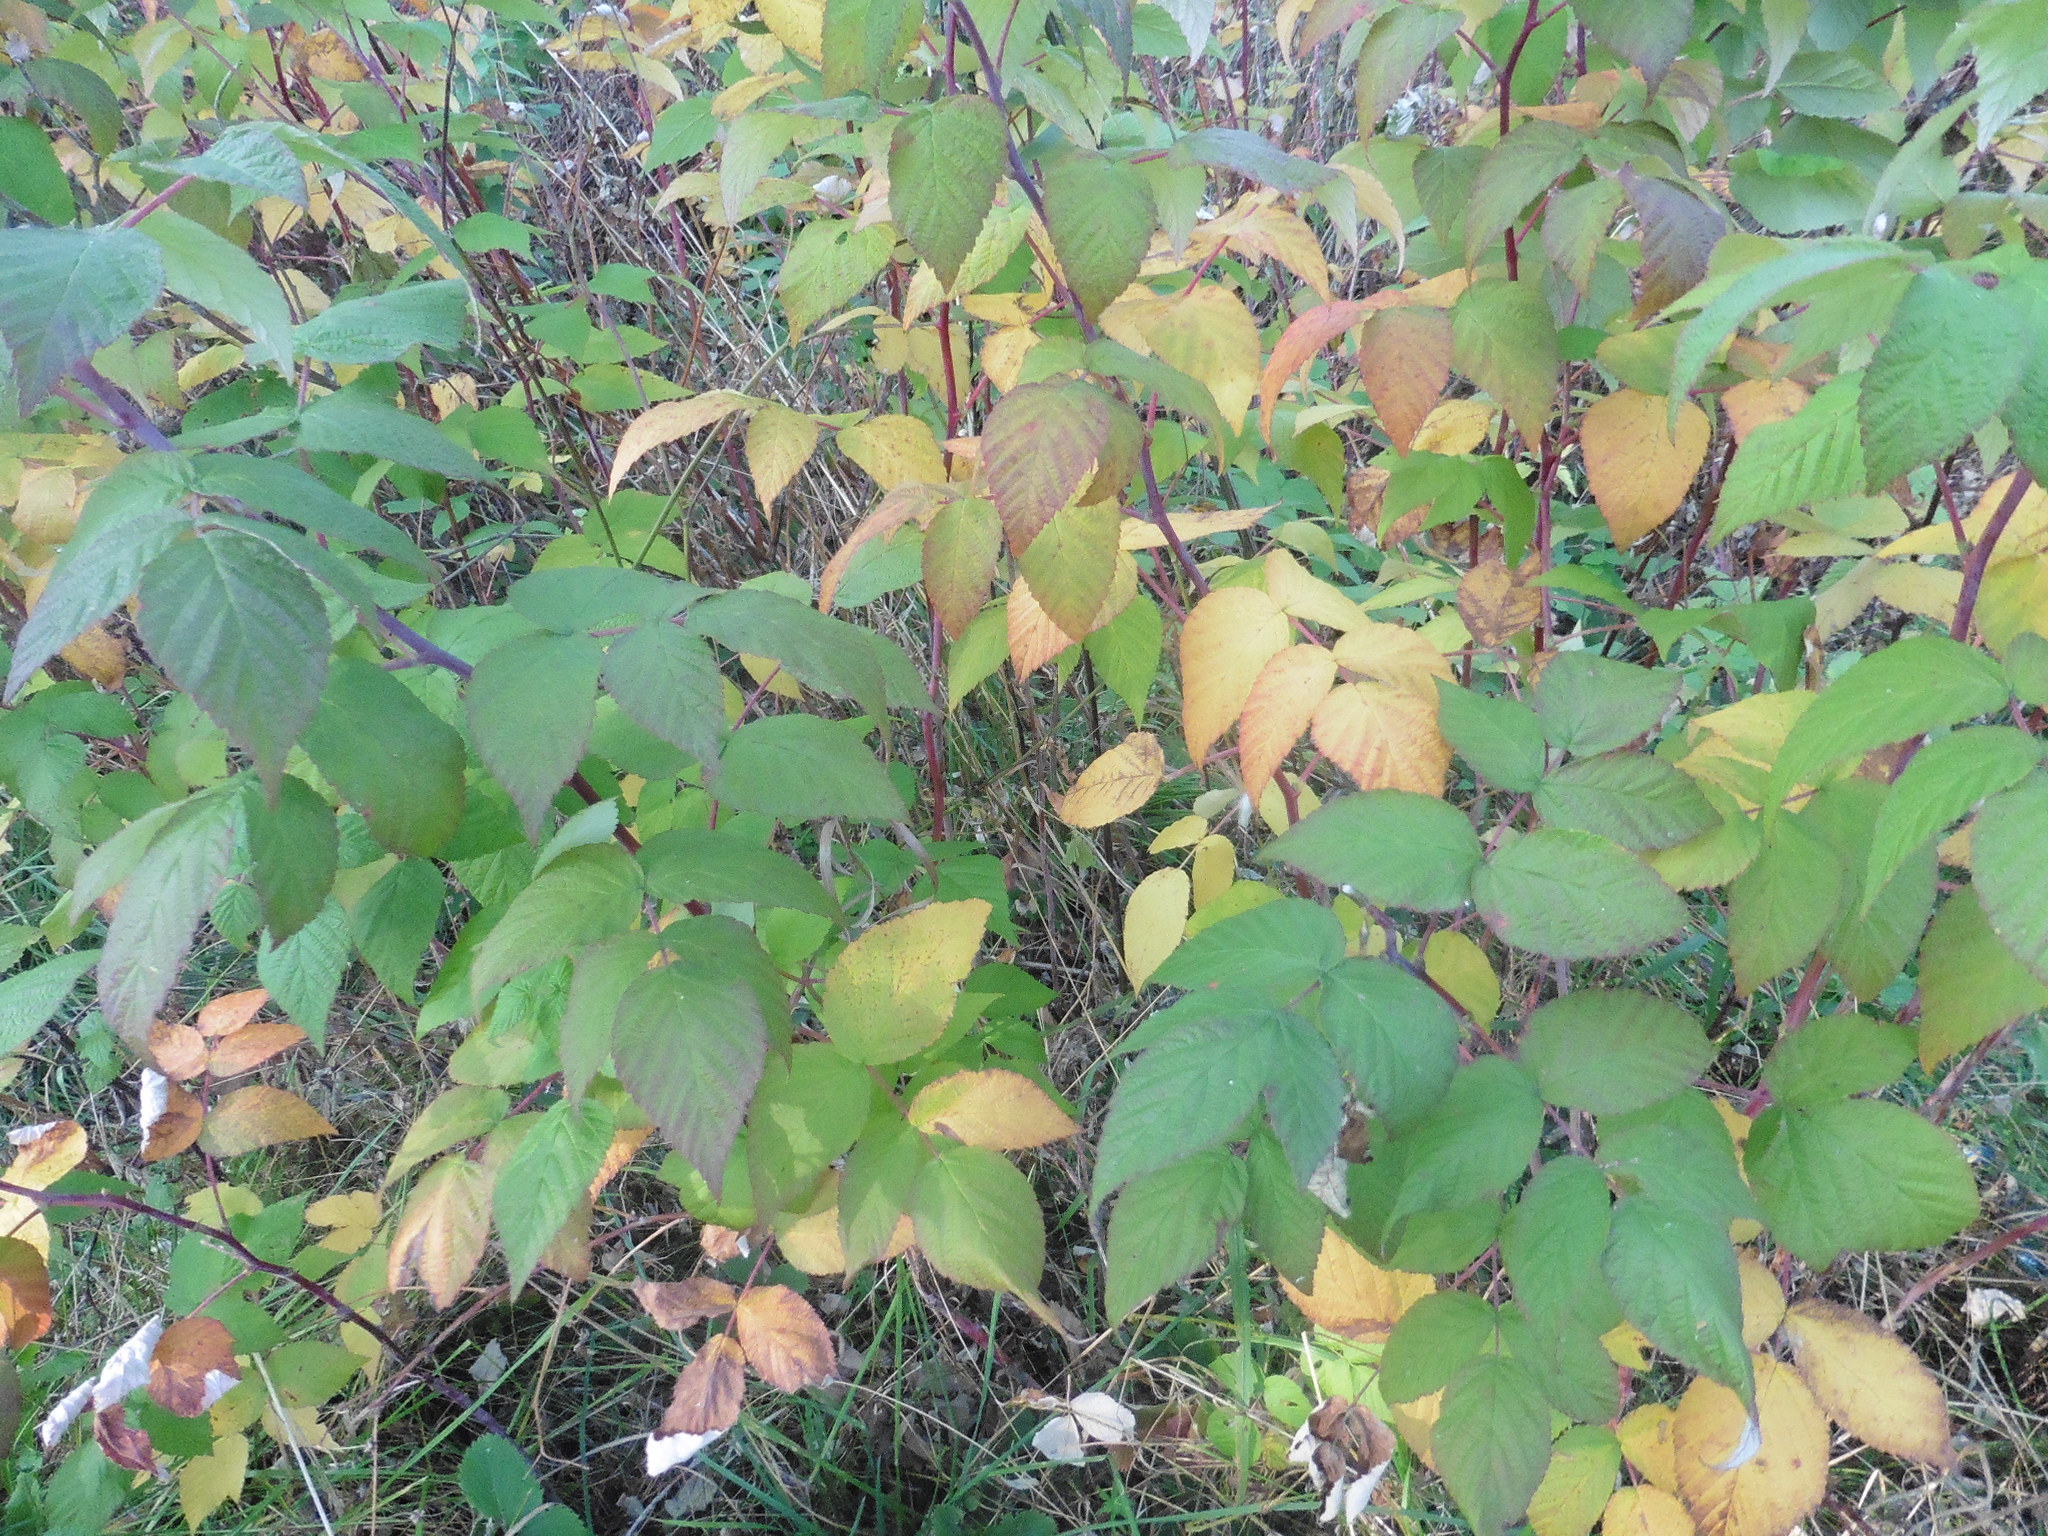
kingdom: Plantae
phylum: Tracheophyta
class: Magnoliopsida
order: Rosales
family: Rosaceae
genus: Rubus
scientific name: Rubus idaeus
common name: Raspberry
